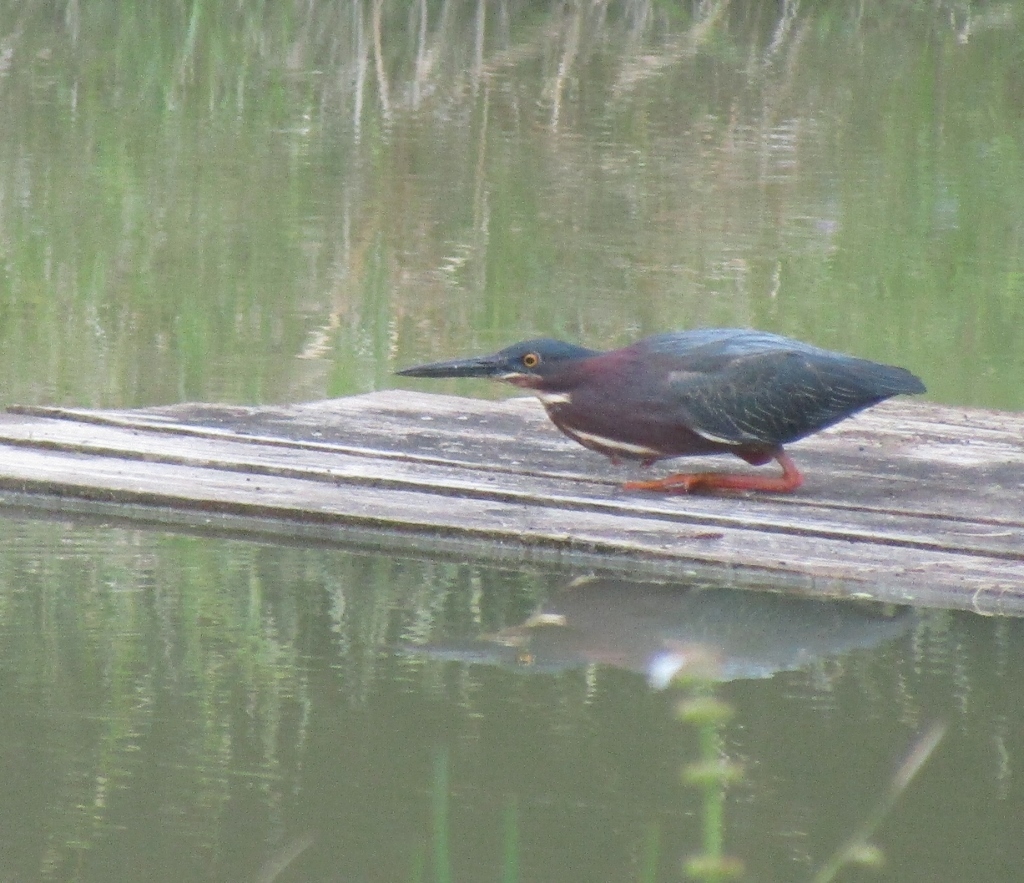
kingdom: Animalia
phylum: Chordata
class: Aves
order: Pelecaniformes
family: Ardeidae
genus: Butorides
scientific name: Butorides virescens
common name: Green heron
